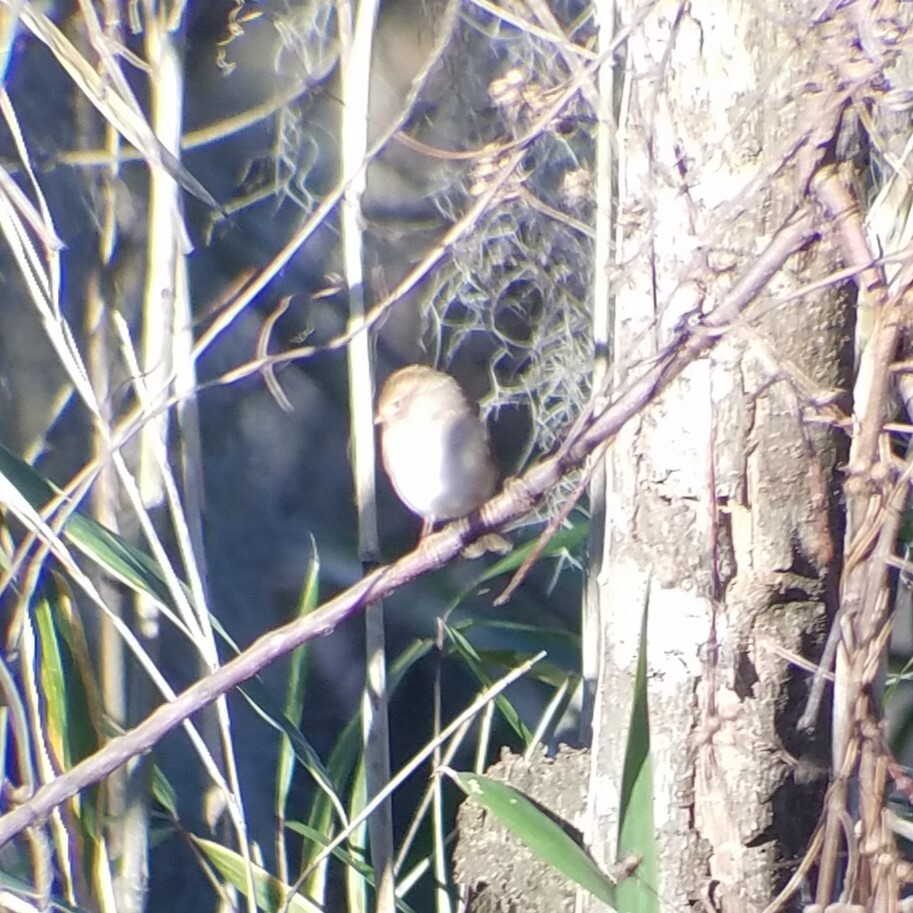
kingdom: Animalia
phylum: Chordata
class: Aves
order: Passeriformes
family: Passerellidae
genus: Spizella
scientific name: Spizella pusilla
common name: Field sparrow
